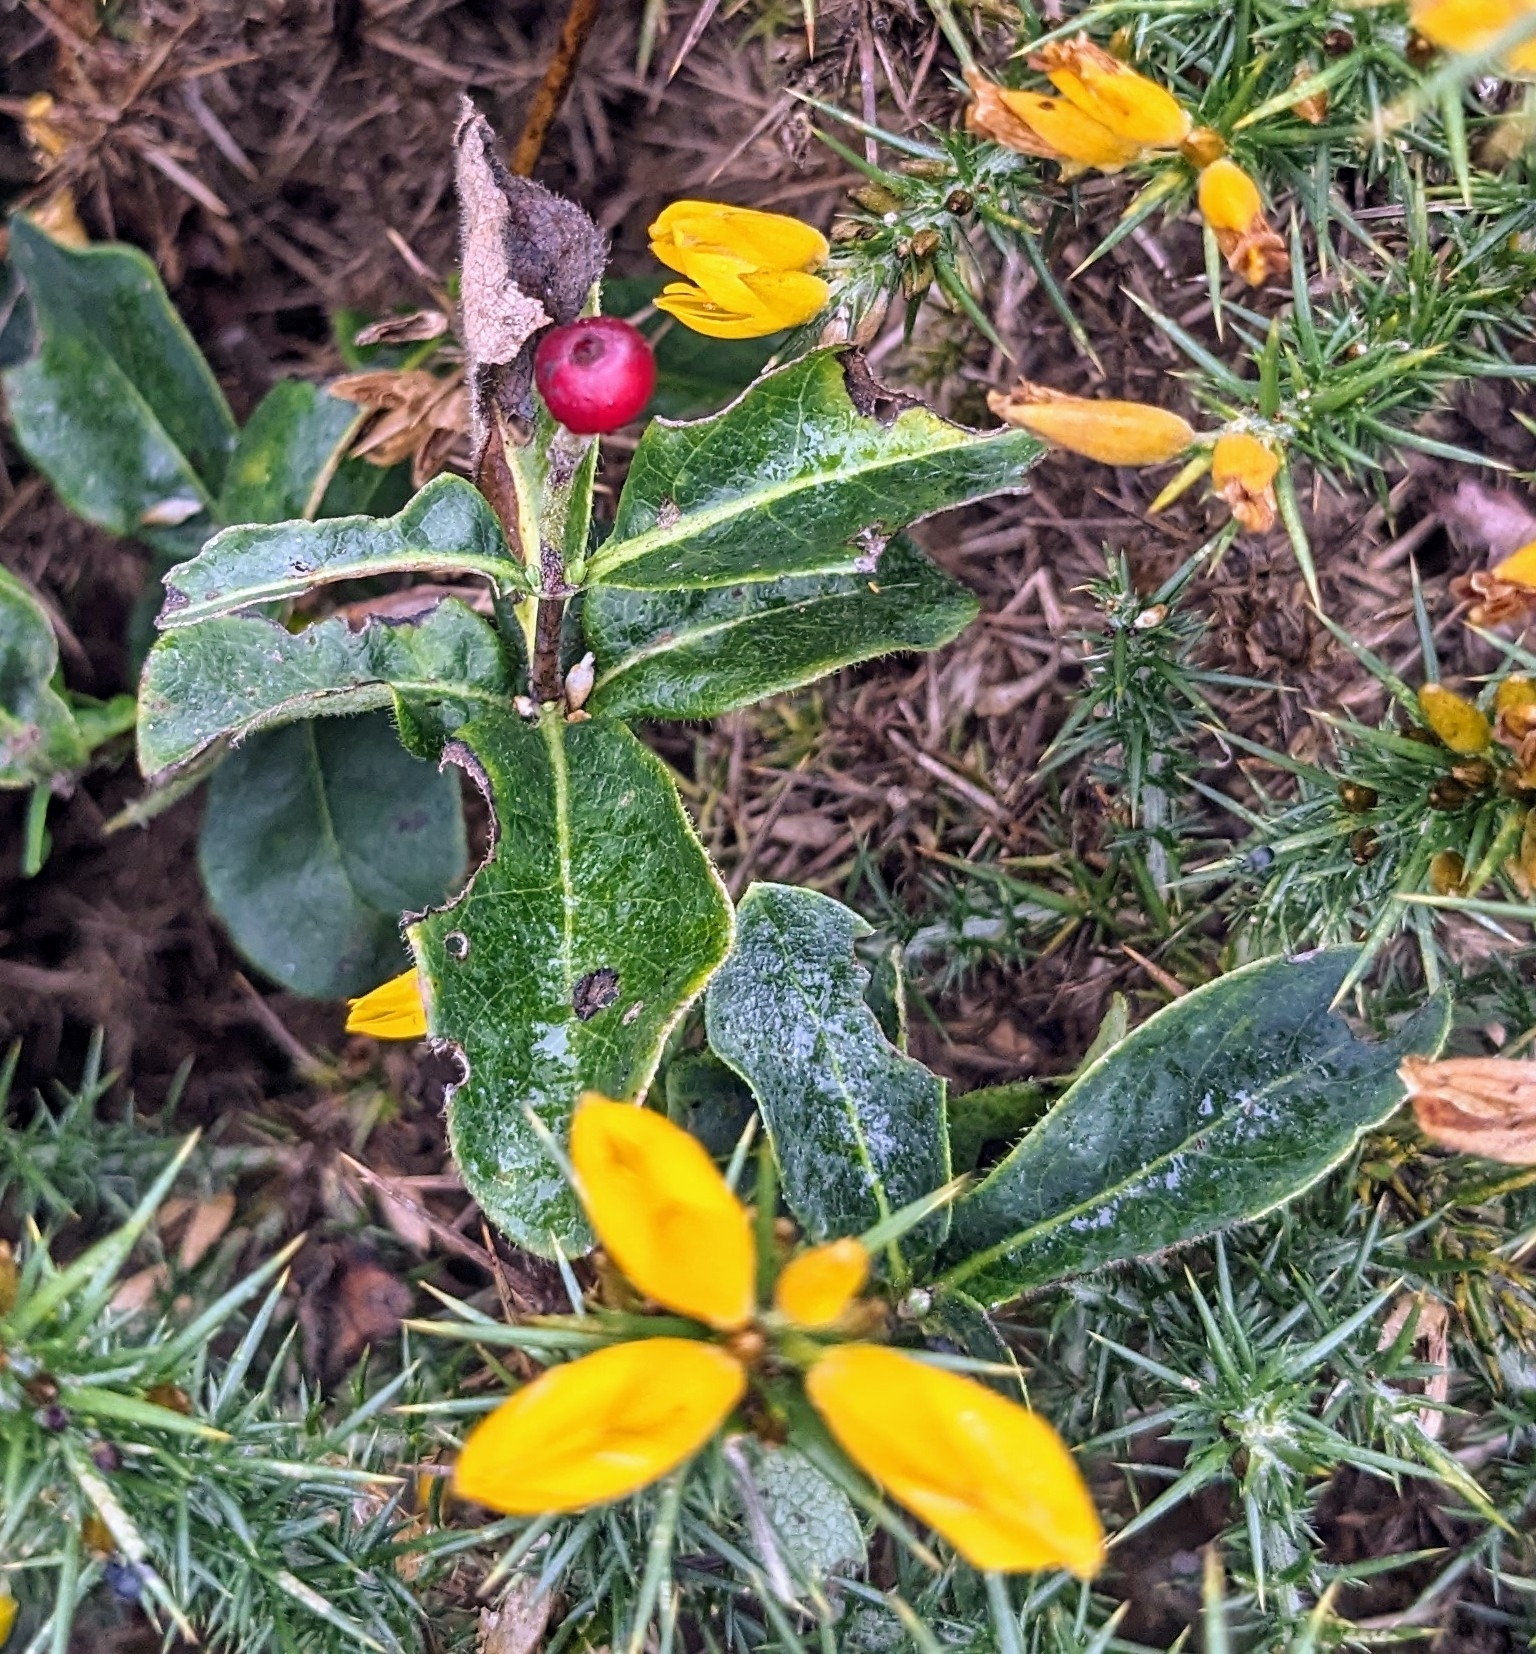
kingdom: Plantae
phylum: Tracheophyta
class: Magnoliopsida
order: Dipsacales
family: Caprifoliaceae
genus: Lonicera
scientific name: Lonicera periclymenum
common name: European honeysuckle
